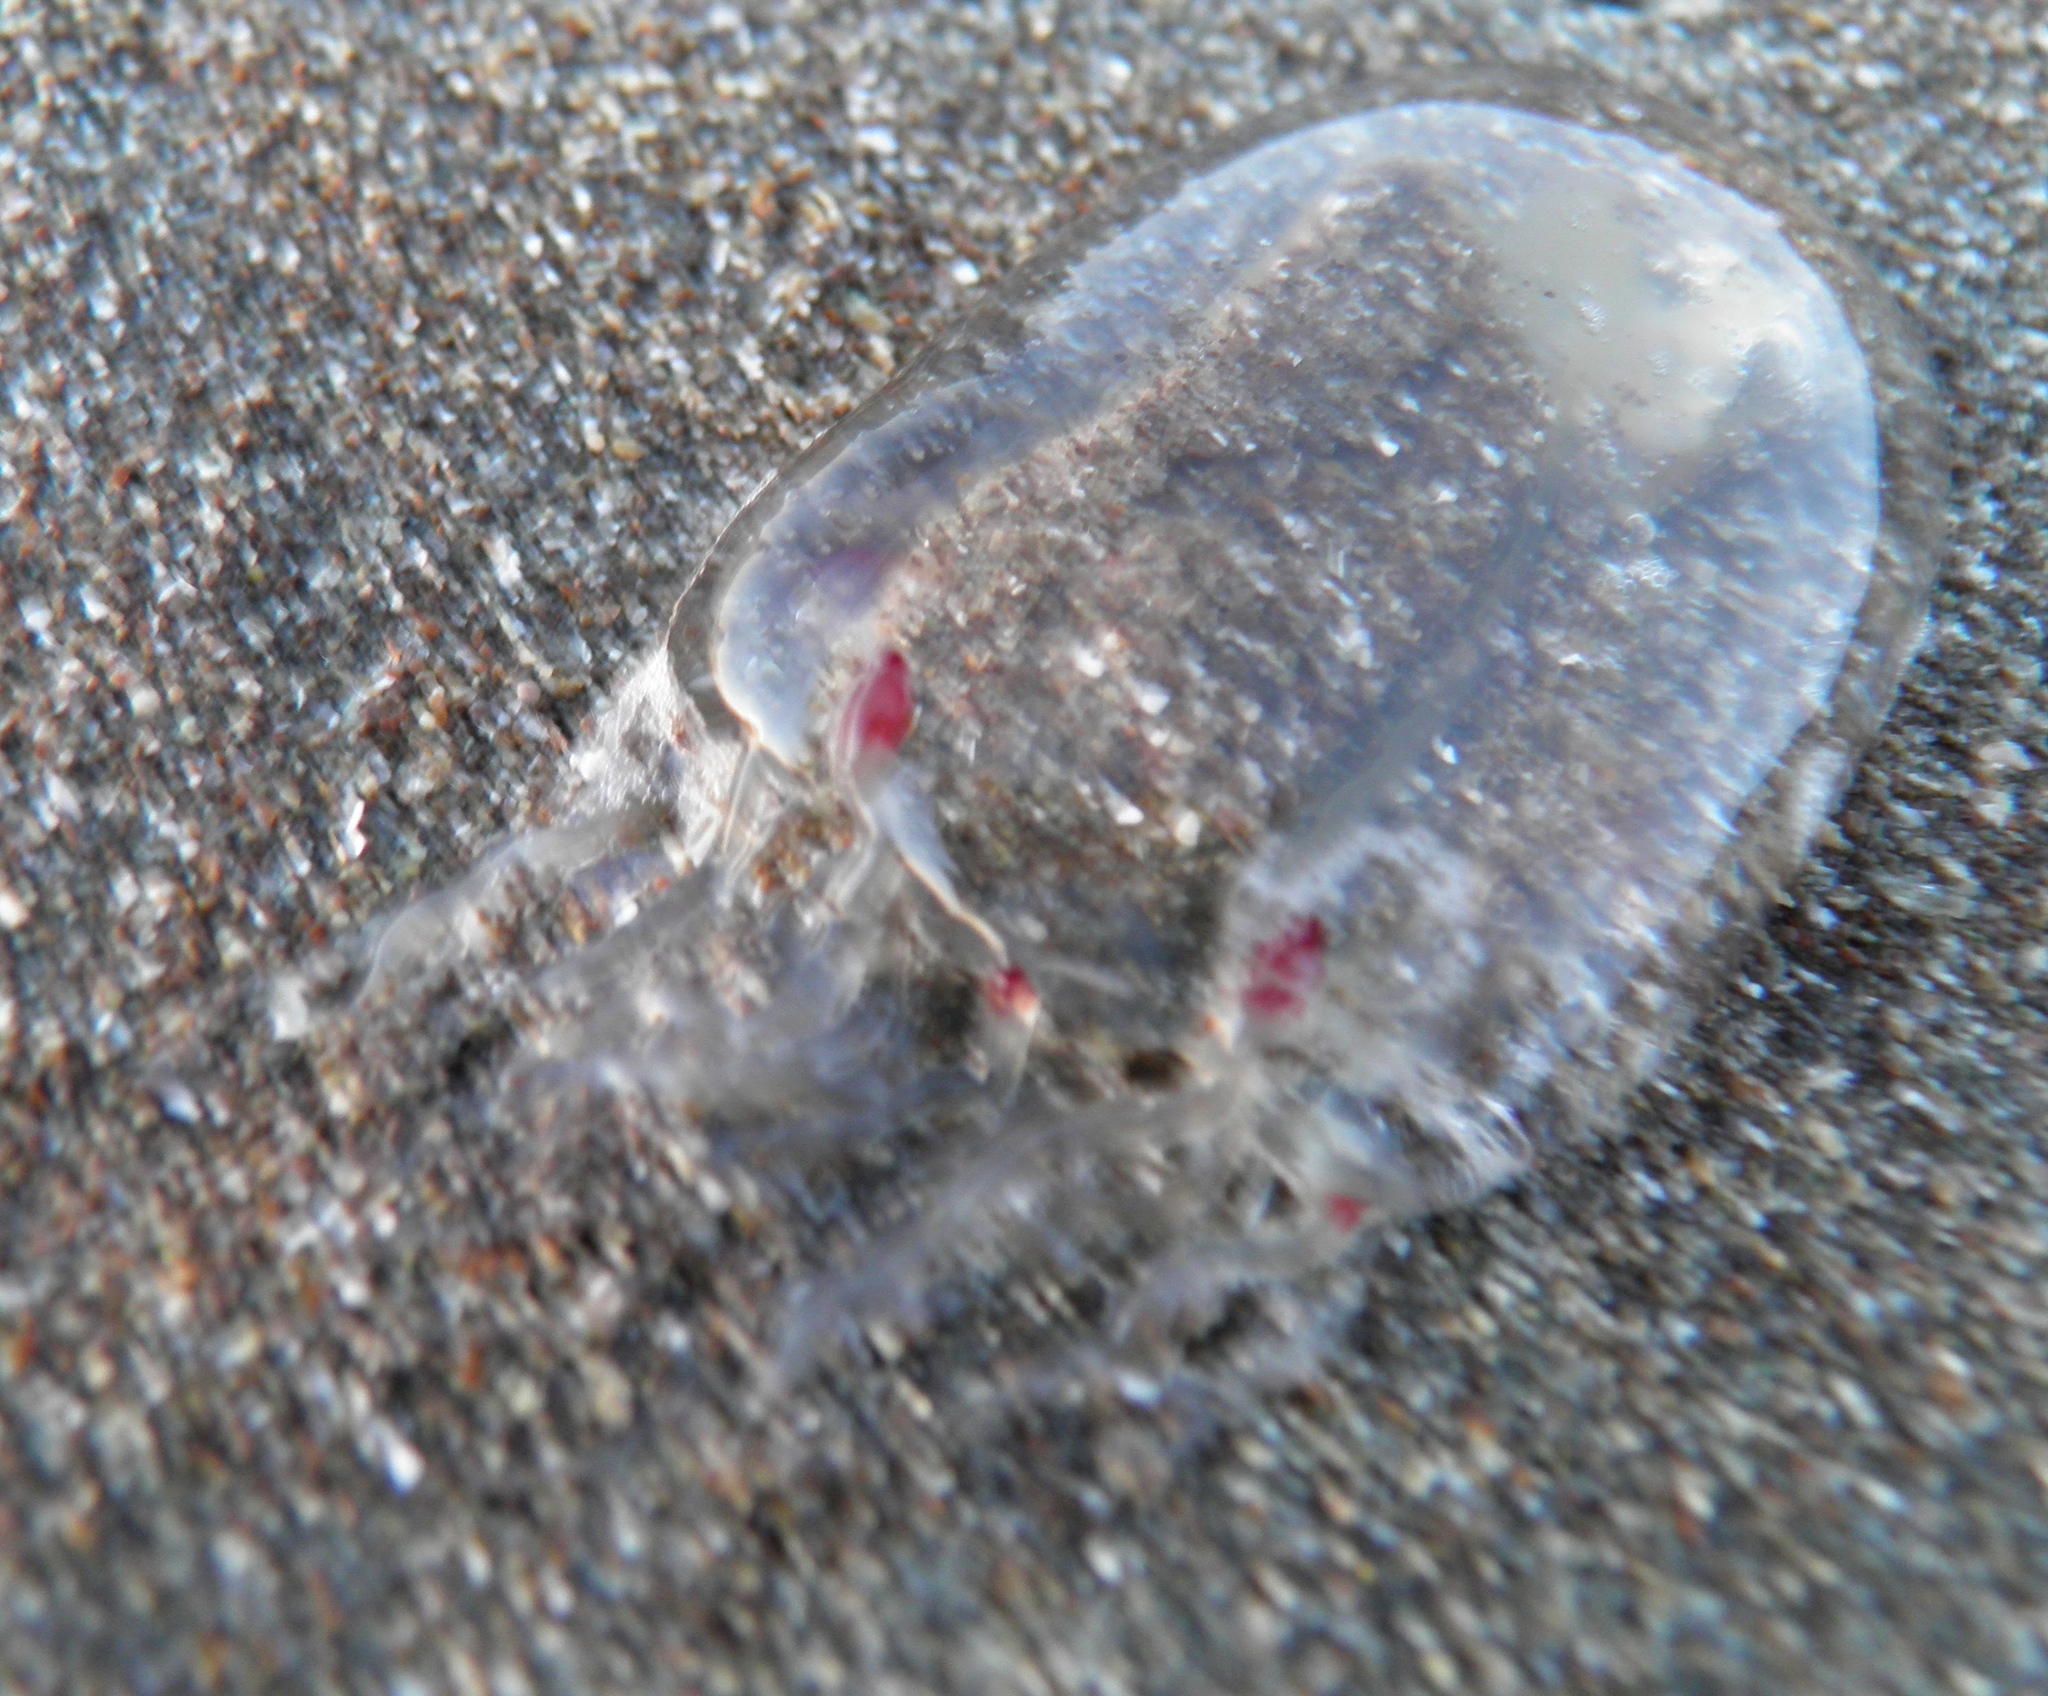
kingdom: Animalia
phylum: Cnidaria
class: Hydrozoa
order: Anthoathecata
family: Corynidae
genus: Scrippsia
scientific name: Scrippsia pacifica
